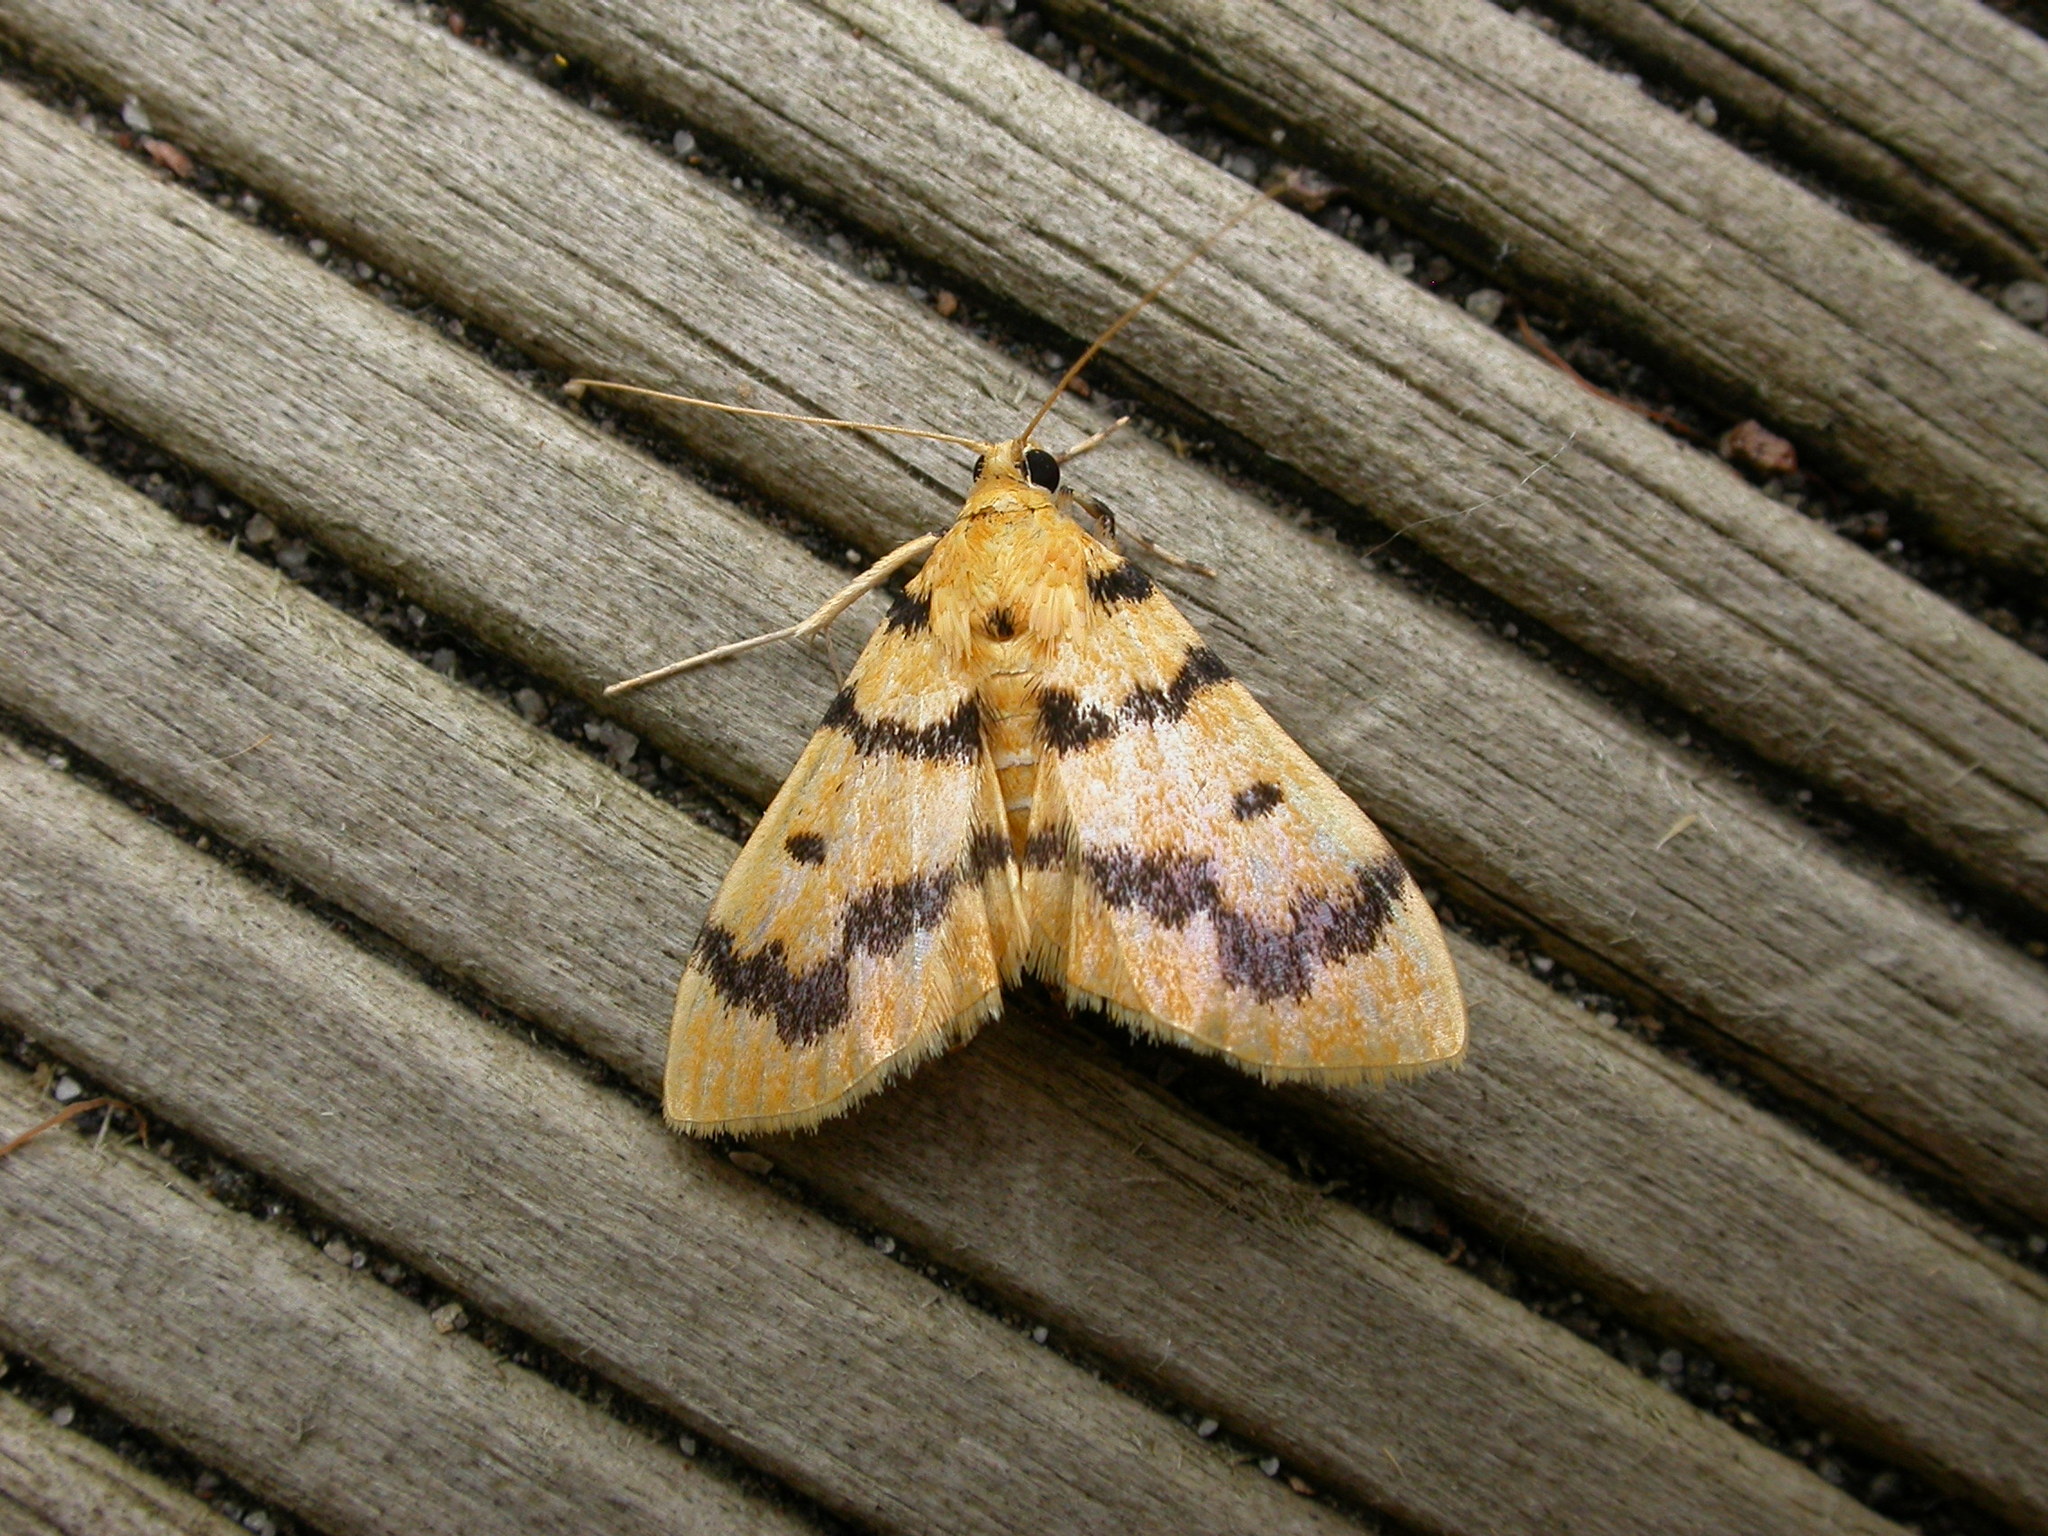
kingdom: Animalia
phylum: Arthropoda
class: Insecta
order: Lepidoptera
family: Crambidae
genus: Dichocrocis
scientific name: Dichocrocis clytusalis
